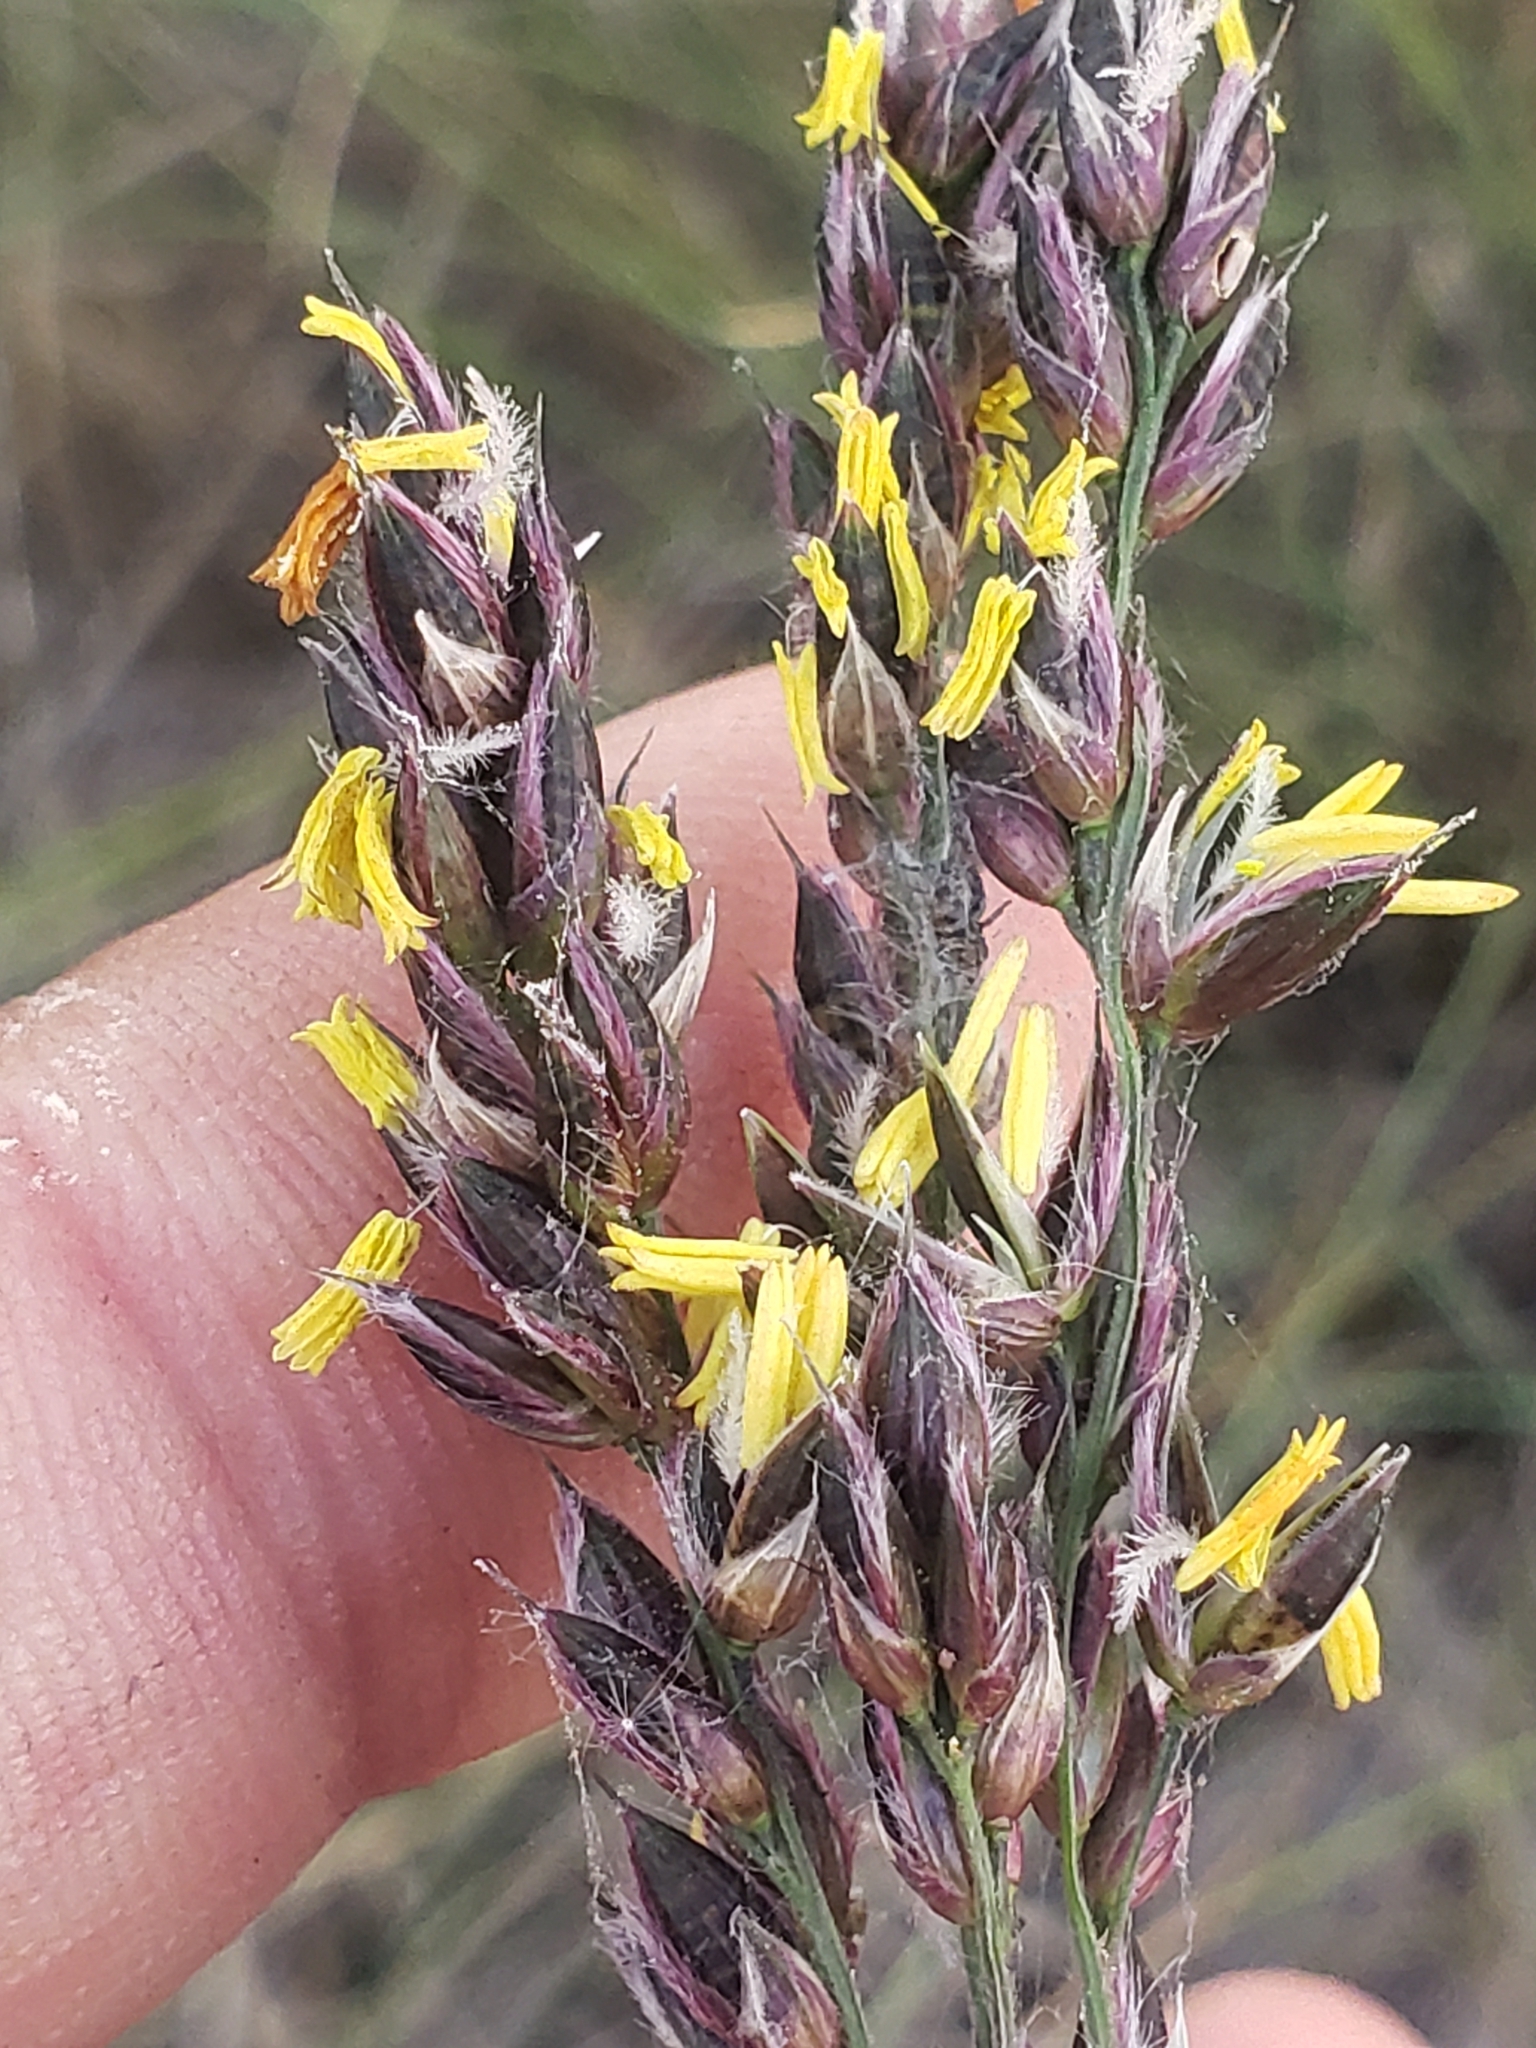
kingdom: Plantae
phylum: Tracheophyta
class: Liliopsida
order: Poales
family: Poaceae
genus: Alloteropsis
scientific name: Alloteropsis semialata
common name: Cockatoo grass
